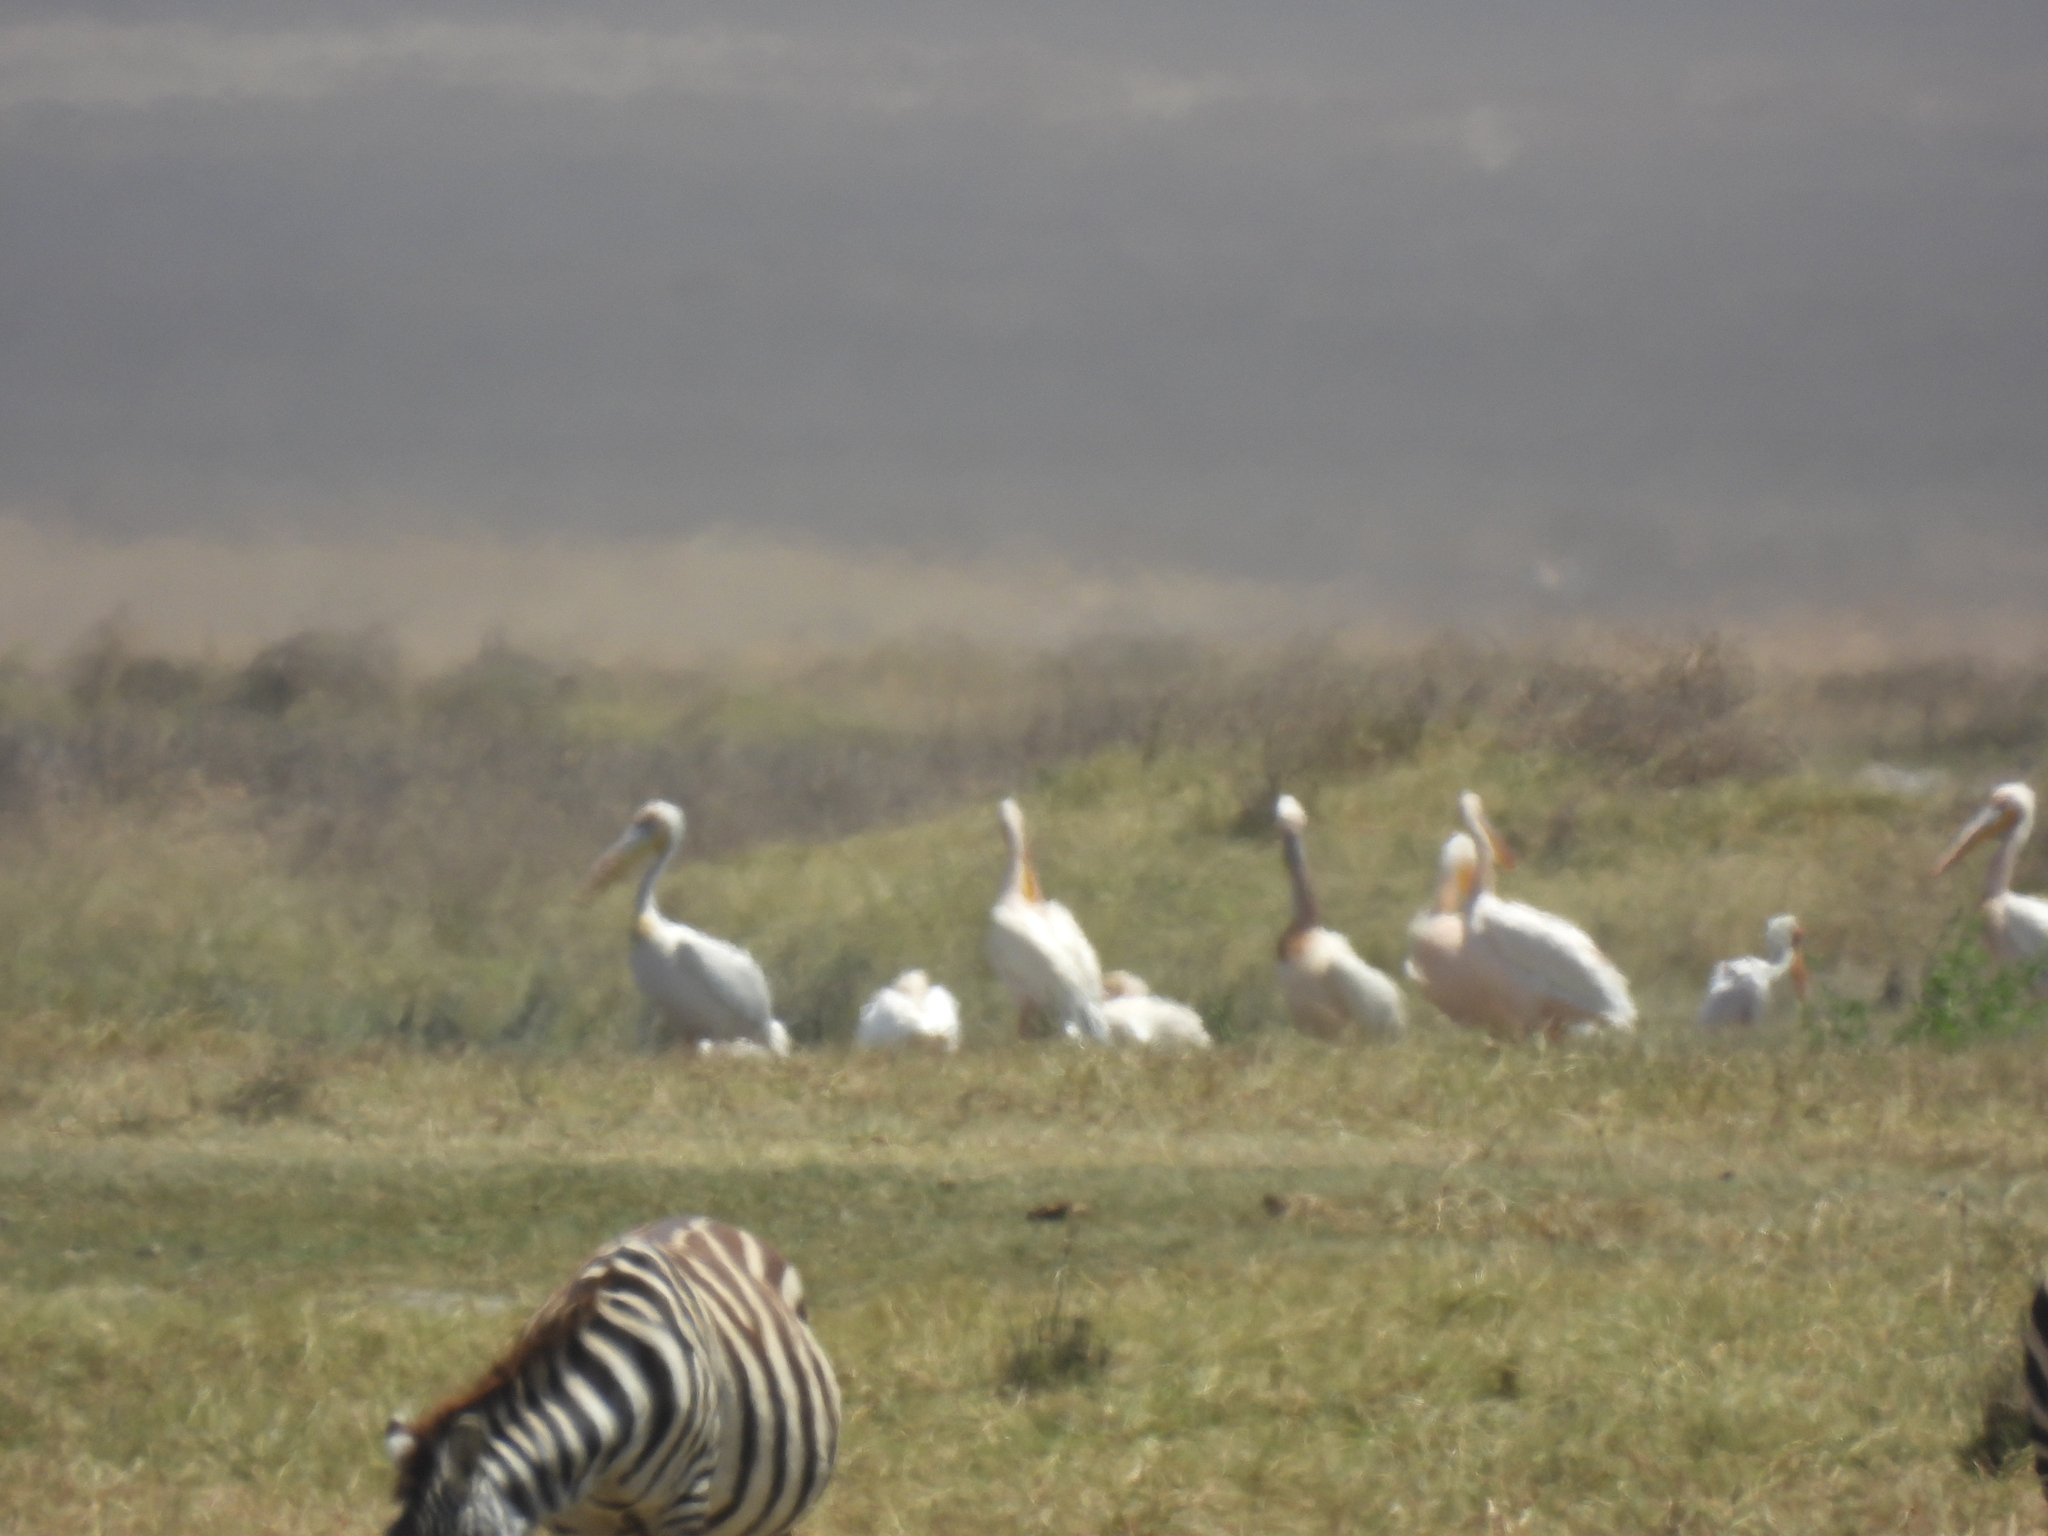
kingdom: Animalia
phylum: Chordata
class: Aves
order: Pelecaniformes
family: Pelecanidae
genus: Pelecanus
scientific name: Pelecanus onocrotalus
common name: Great white pelican
